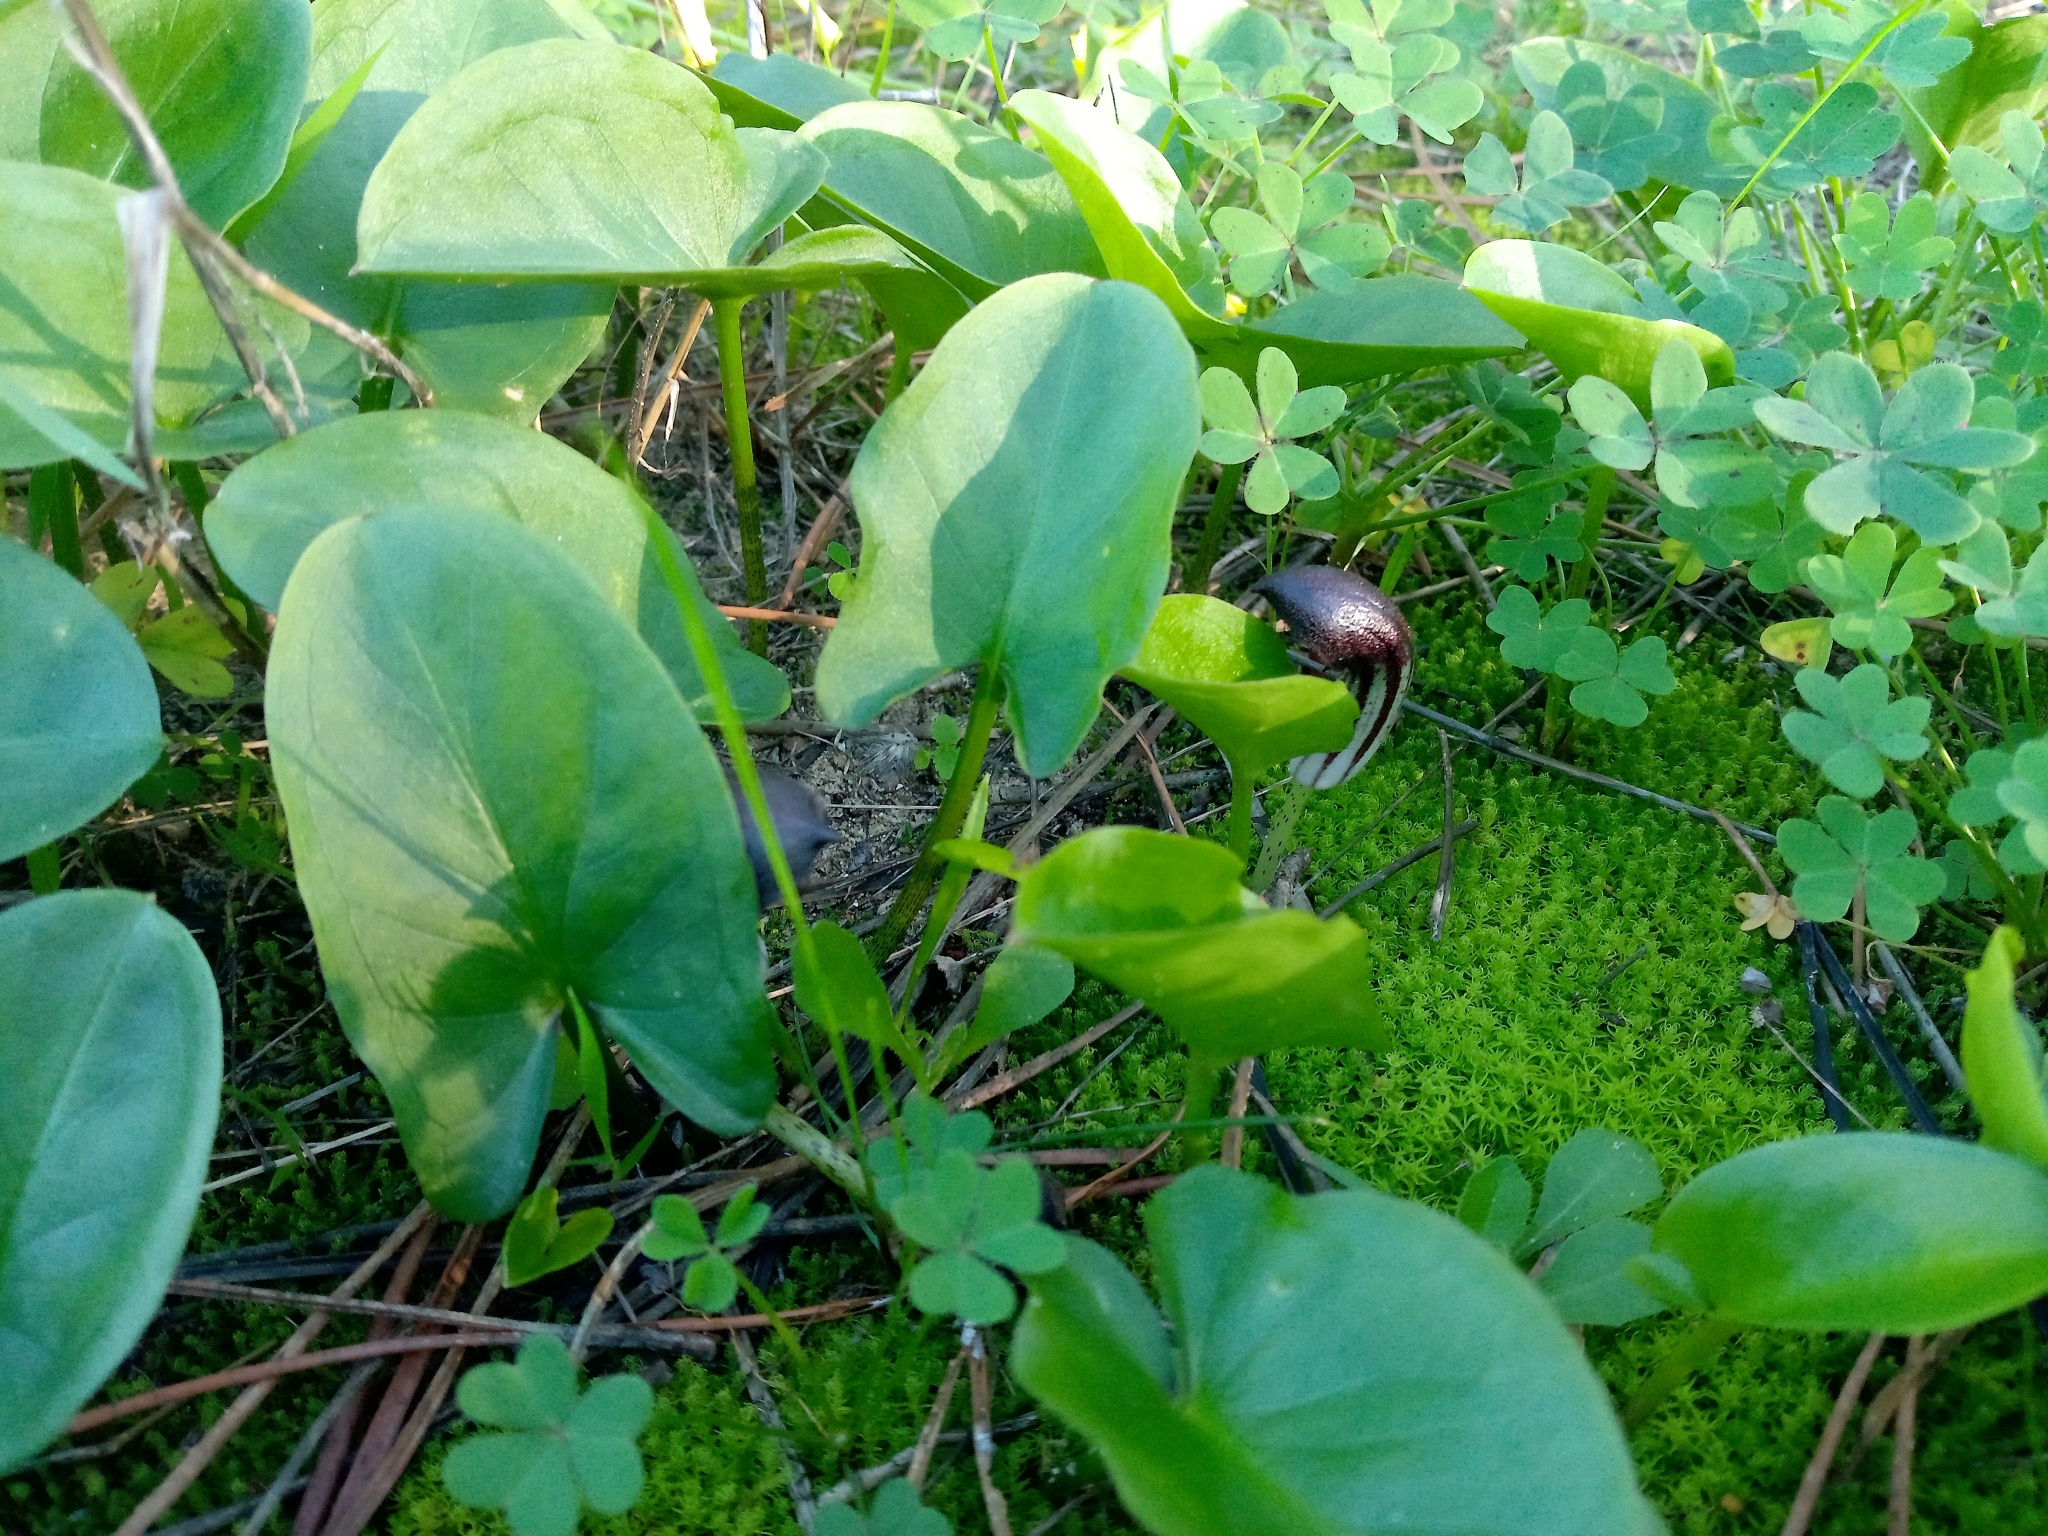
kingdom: Plantae
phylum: Tracheophyta
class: Liliopsida
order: Alismatales
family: Araceae
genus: Arisarum
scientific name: Arisarum simorrhinum
